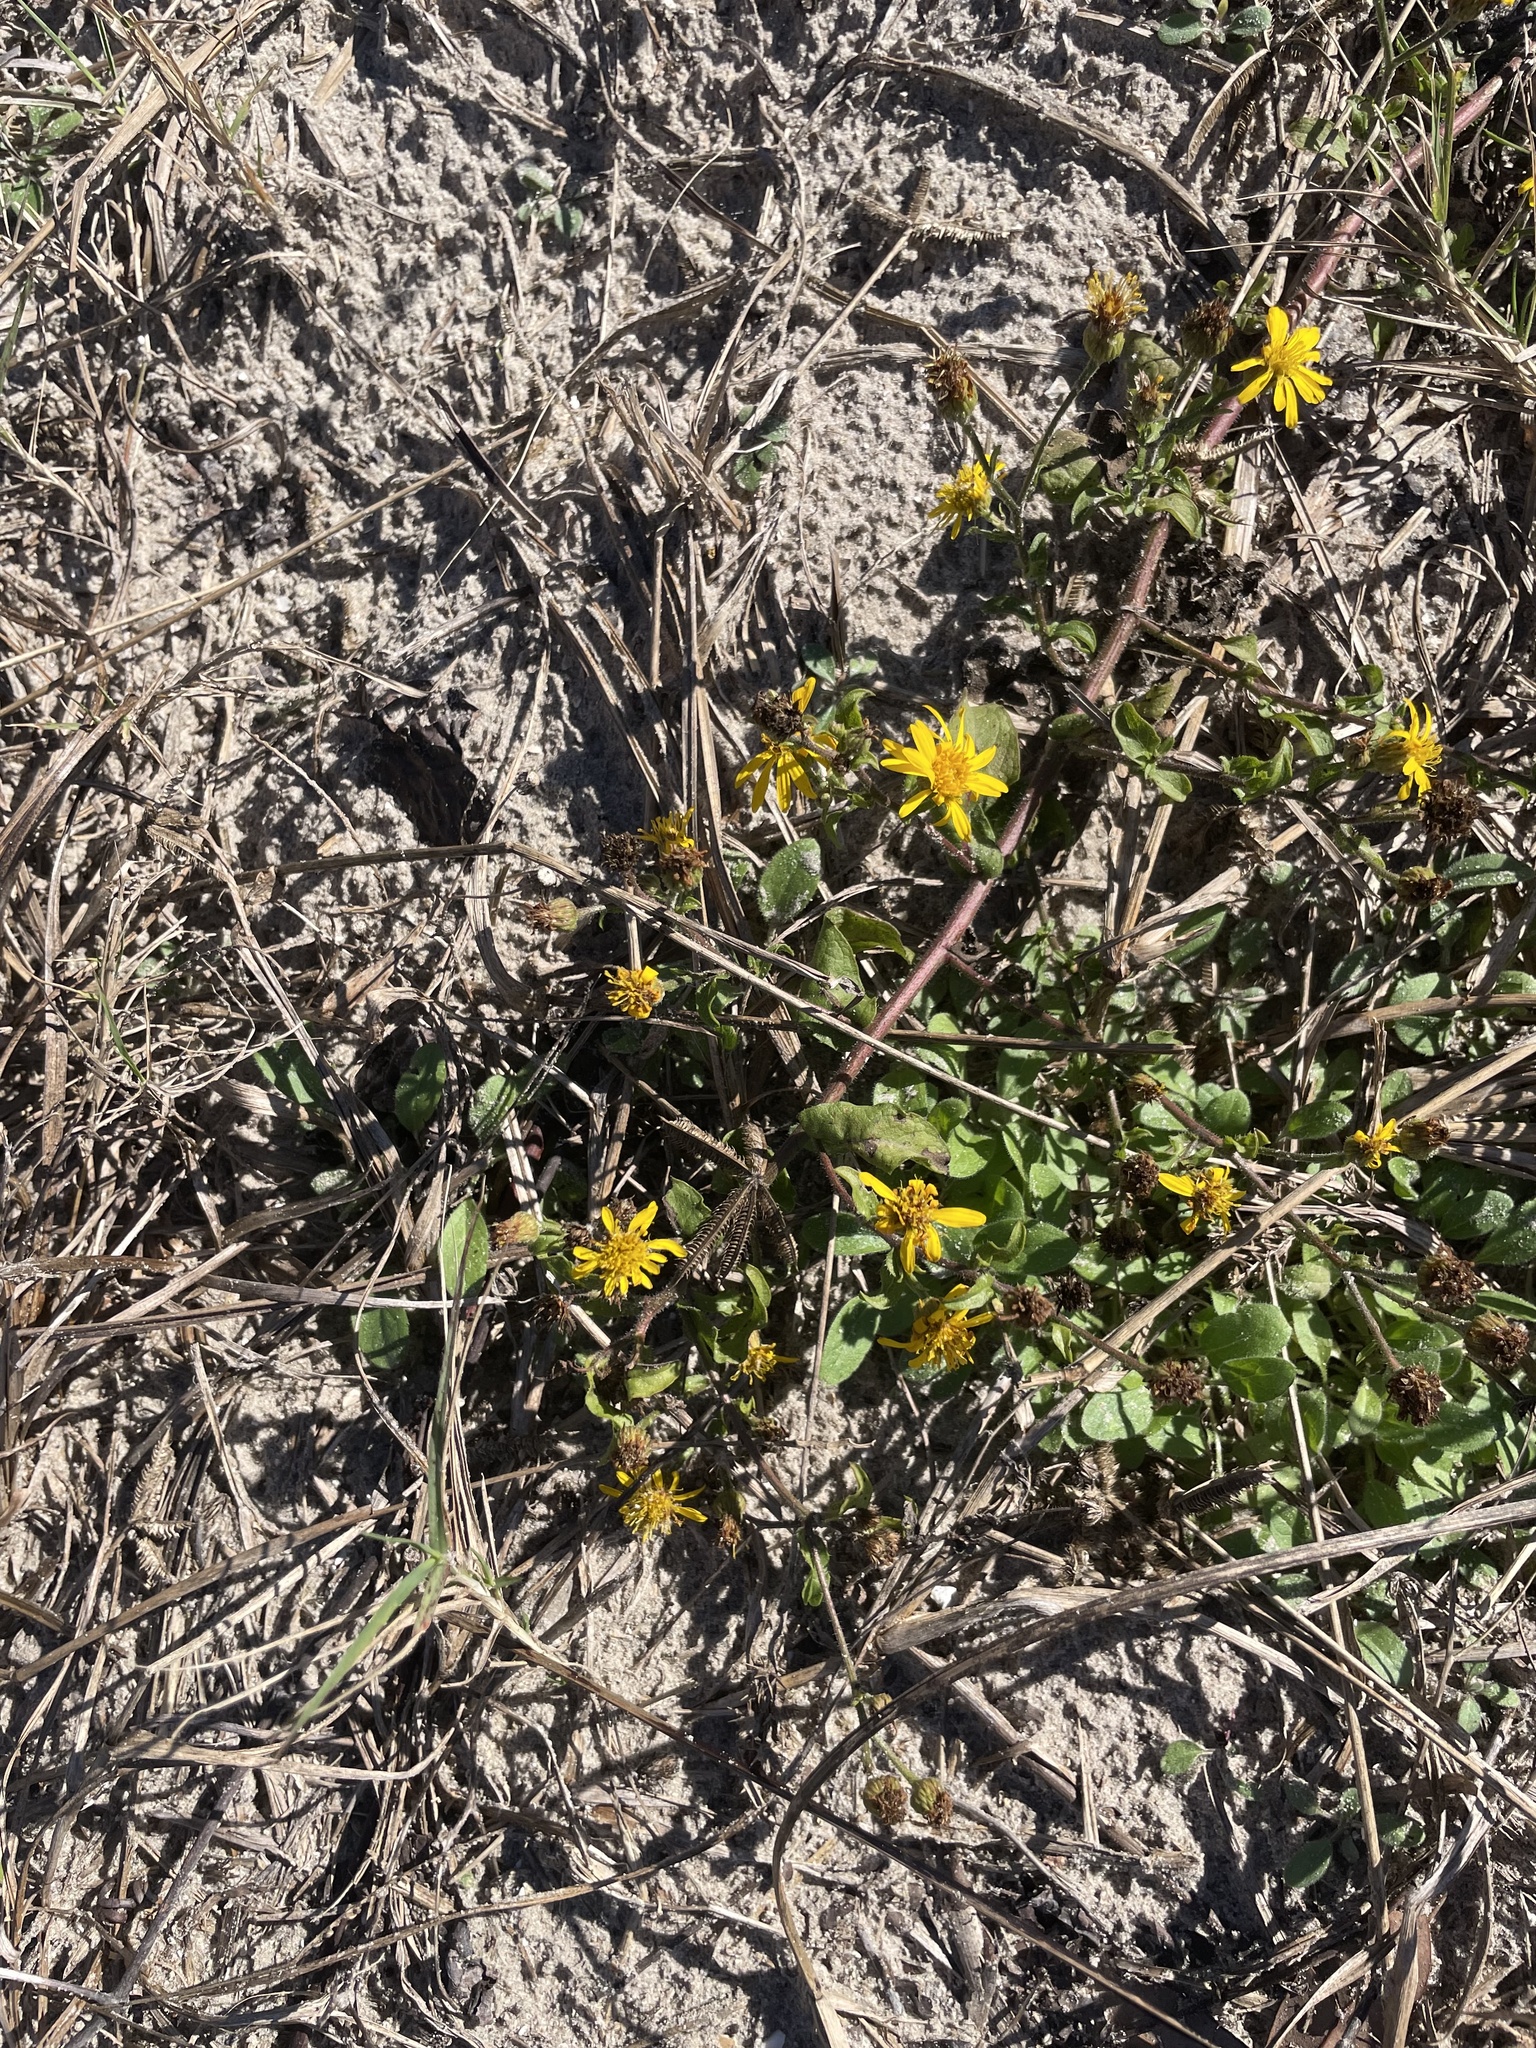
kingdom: Plantae
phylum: Tracheophyta
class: Magnoliopsida
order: Asterales
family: Asteraceae
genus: Heterotheca
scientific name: Heterotheca subaxillaris
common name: Camphorweed
